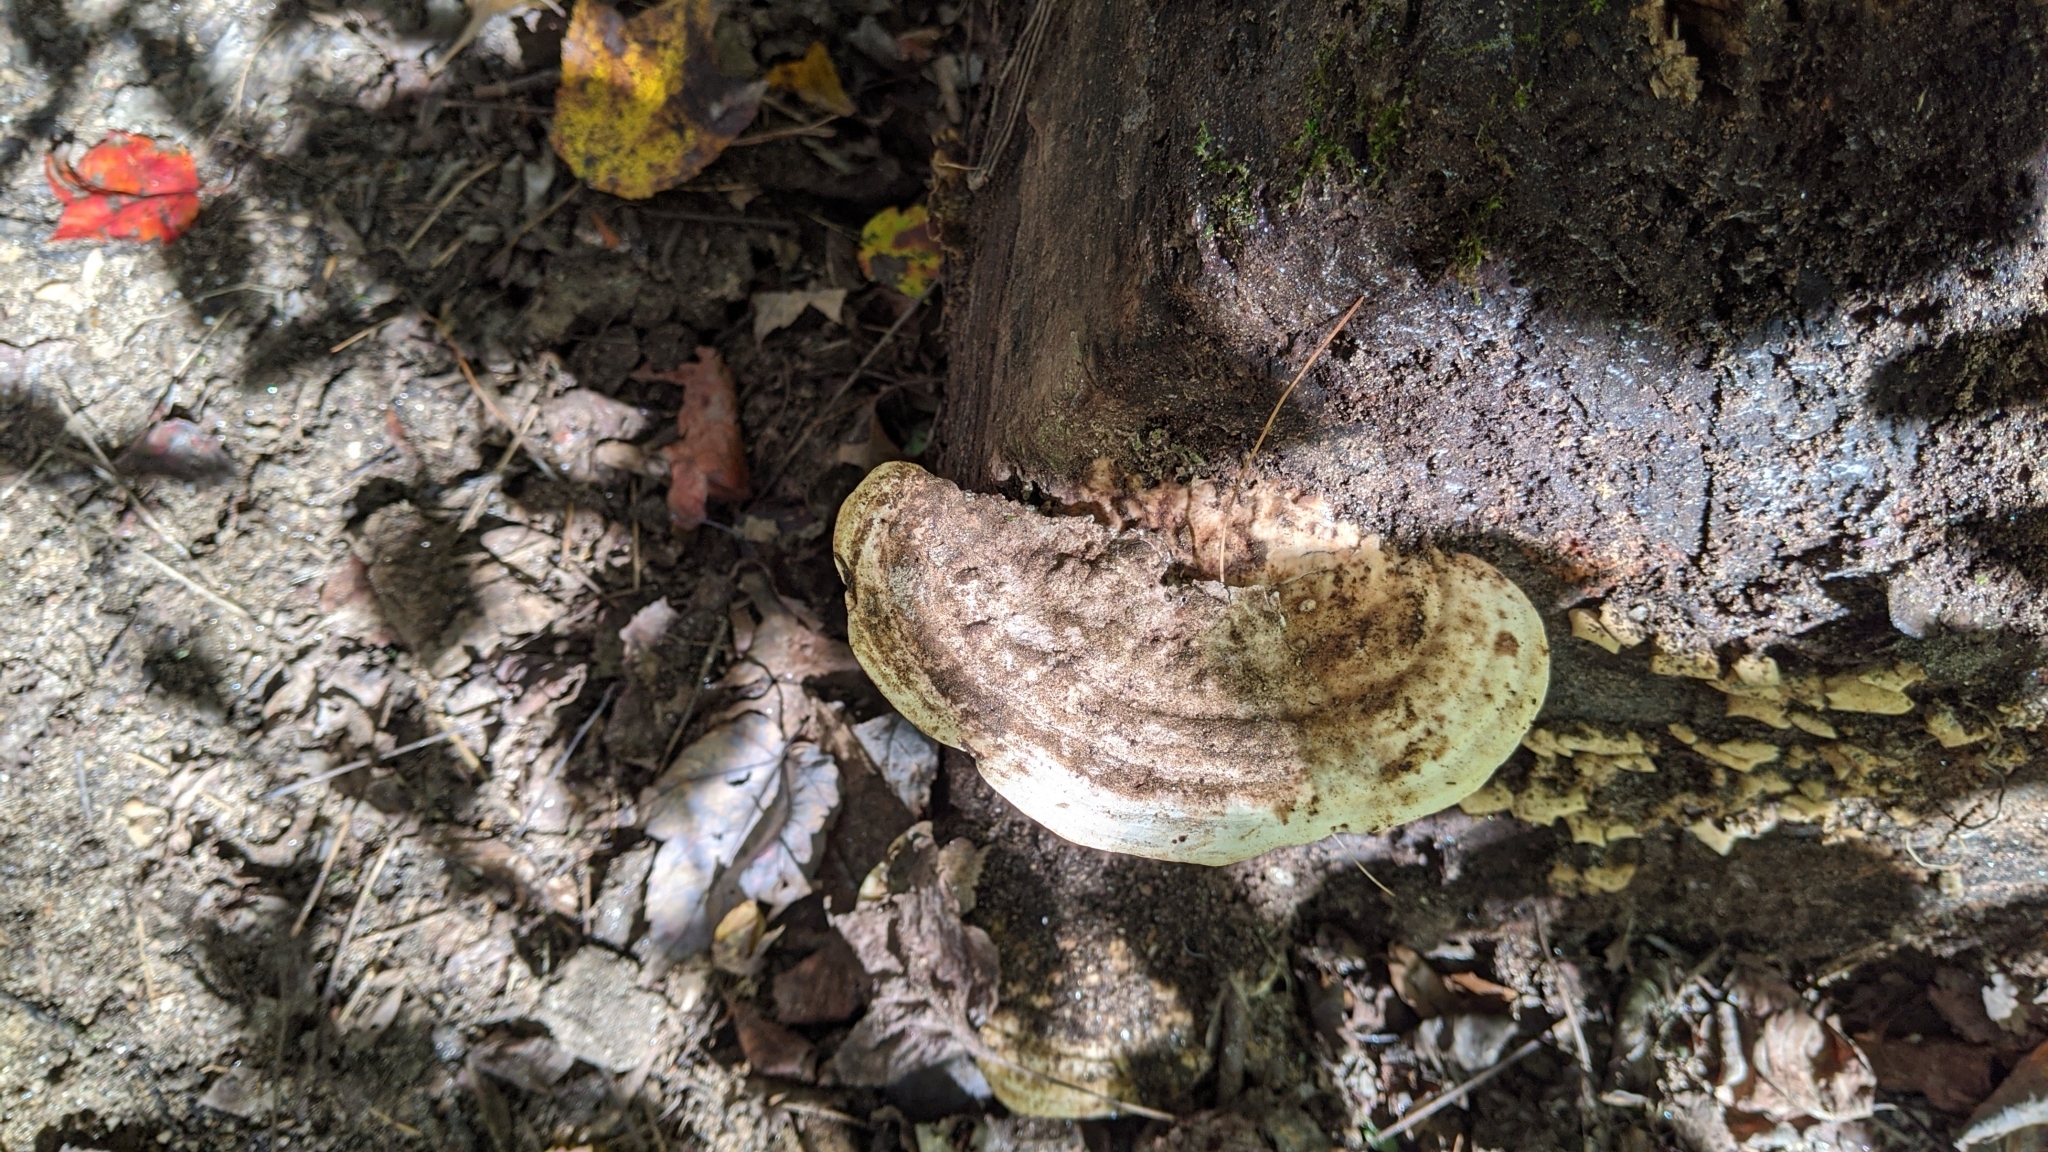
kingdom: Fungi
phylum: Basidiomycota
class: Agaricomycetes
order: Polyporales
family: Polyporaceae
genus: Trametes
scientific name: Trametes gibbosa
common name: Lumpy bracket
